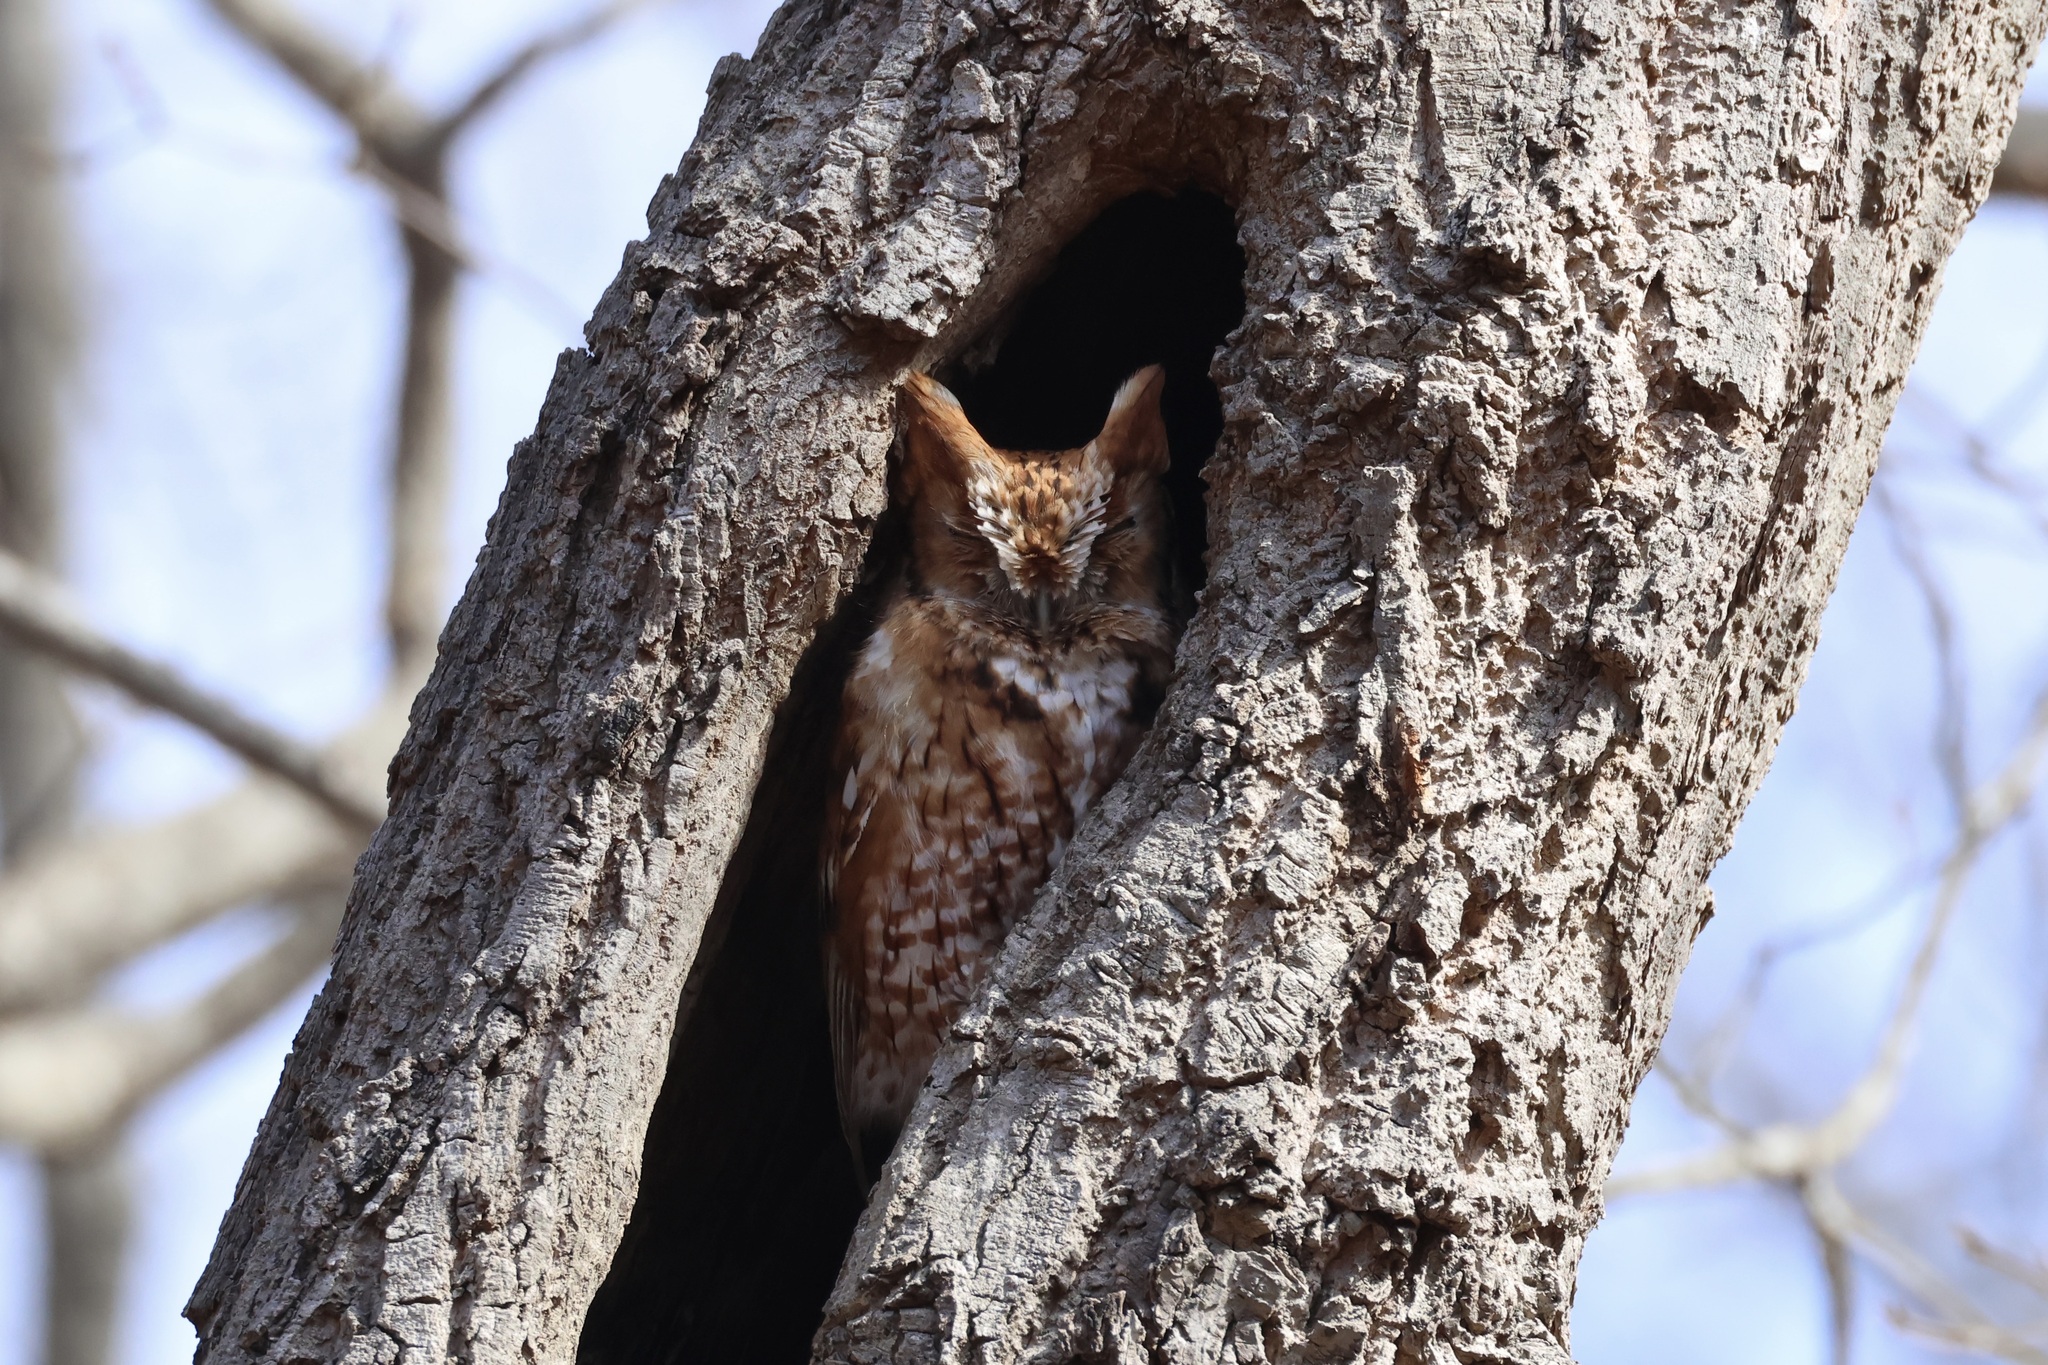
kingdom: Animalia
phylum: Chordata
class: Aves
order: Strigiformes
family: Strigidae
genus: Megascops
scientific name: Megascops asio
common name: Eastern screech-owl
